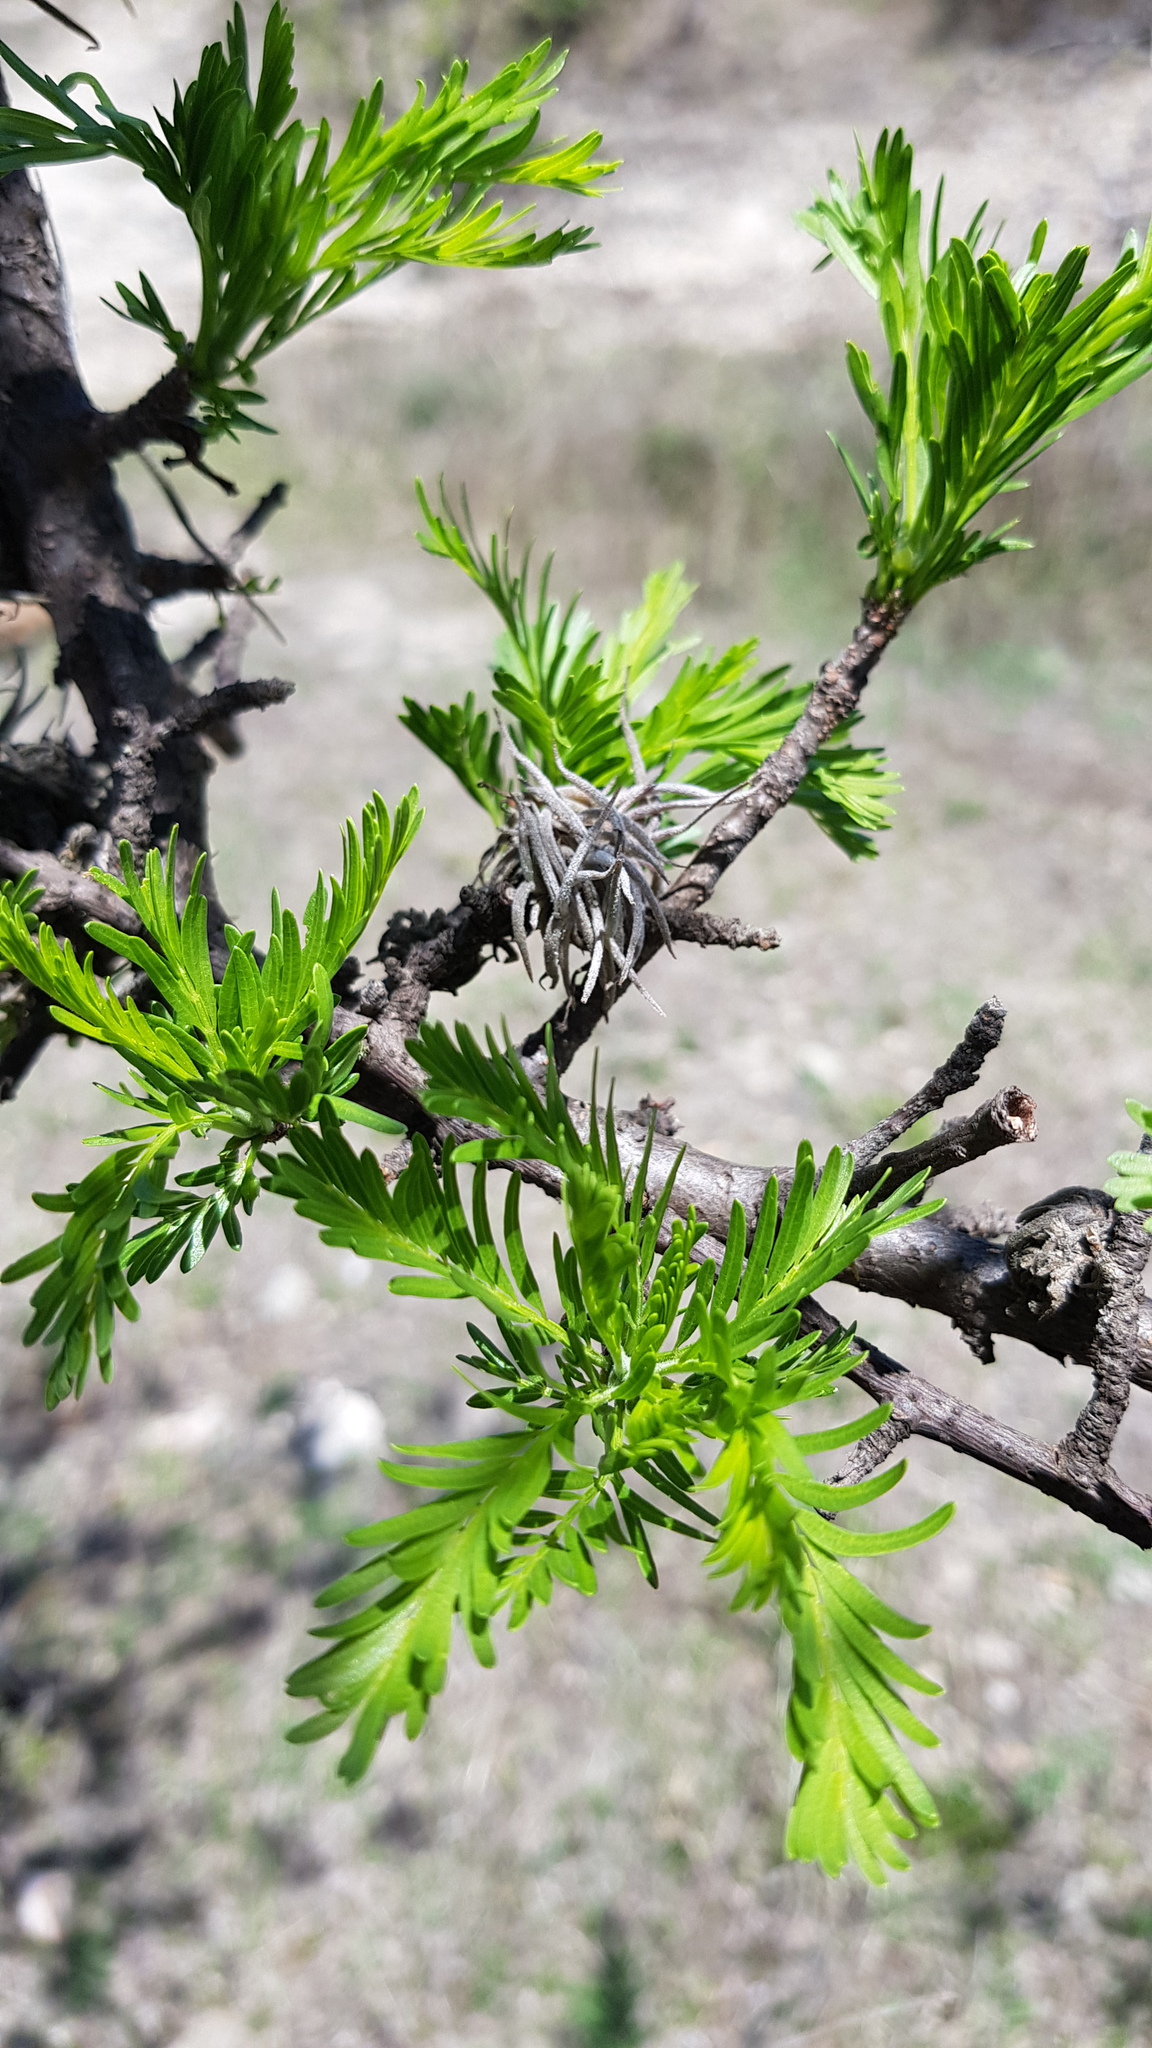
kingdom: Plantae
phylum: Tracheophyta
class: Magnoliopsida
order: Sapindales
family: Burseraceae
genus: Bursera
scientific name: Bursera galeottiana
